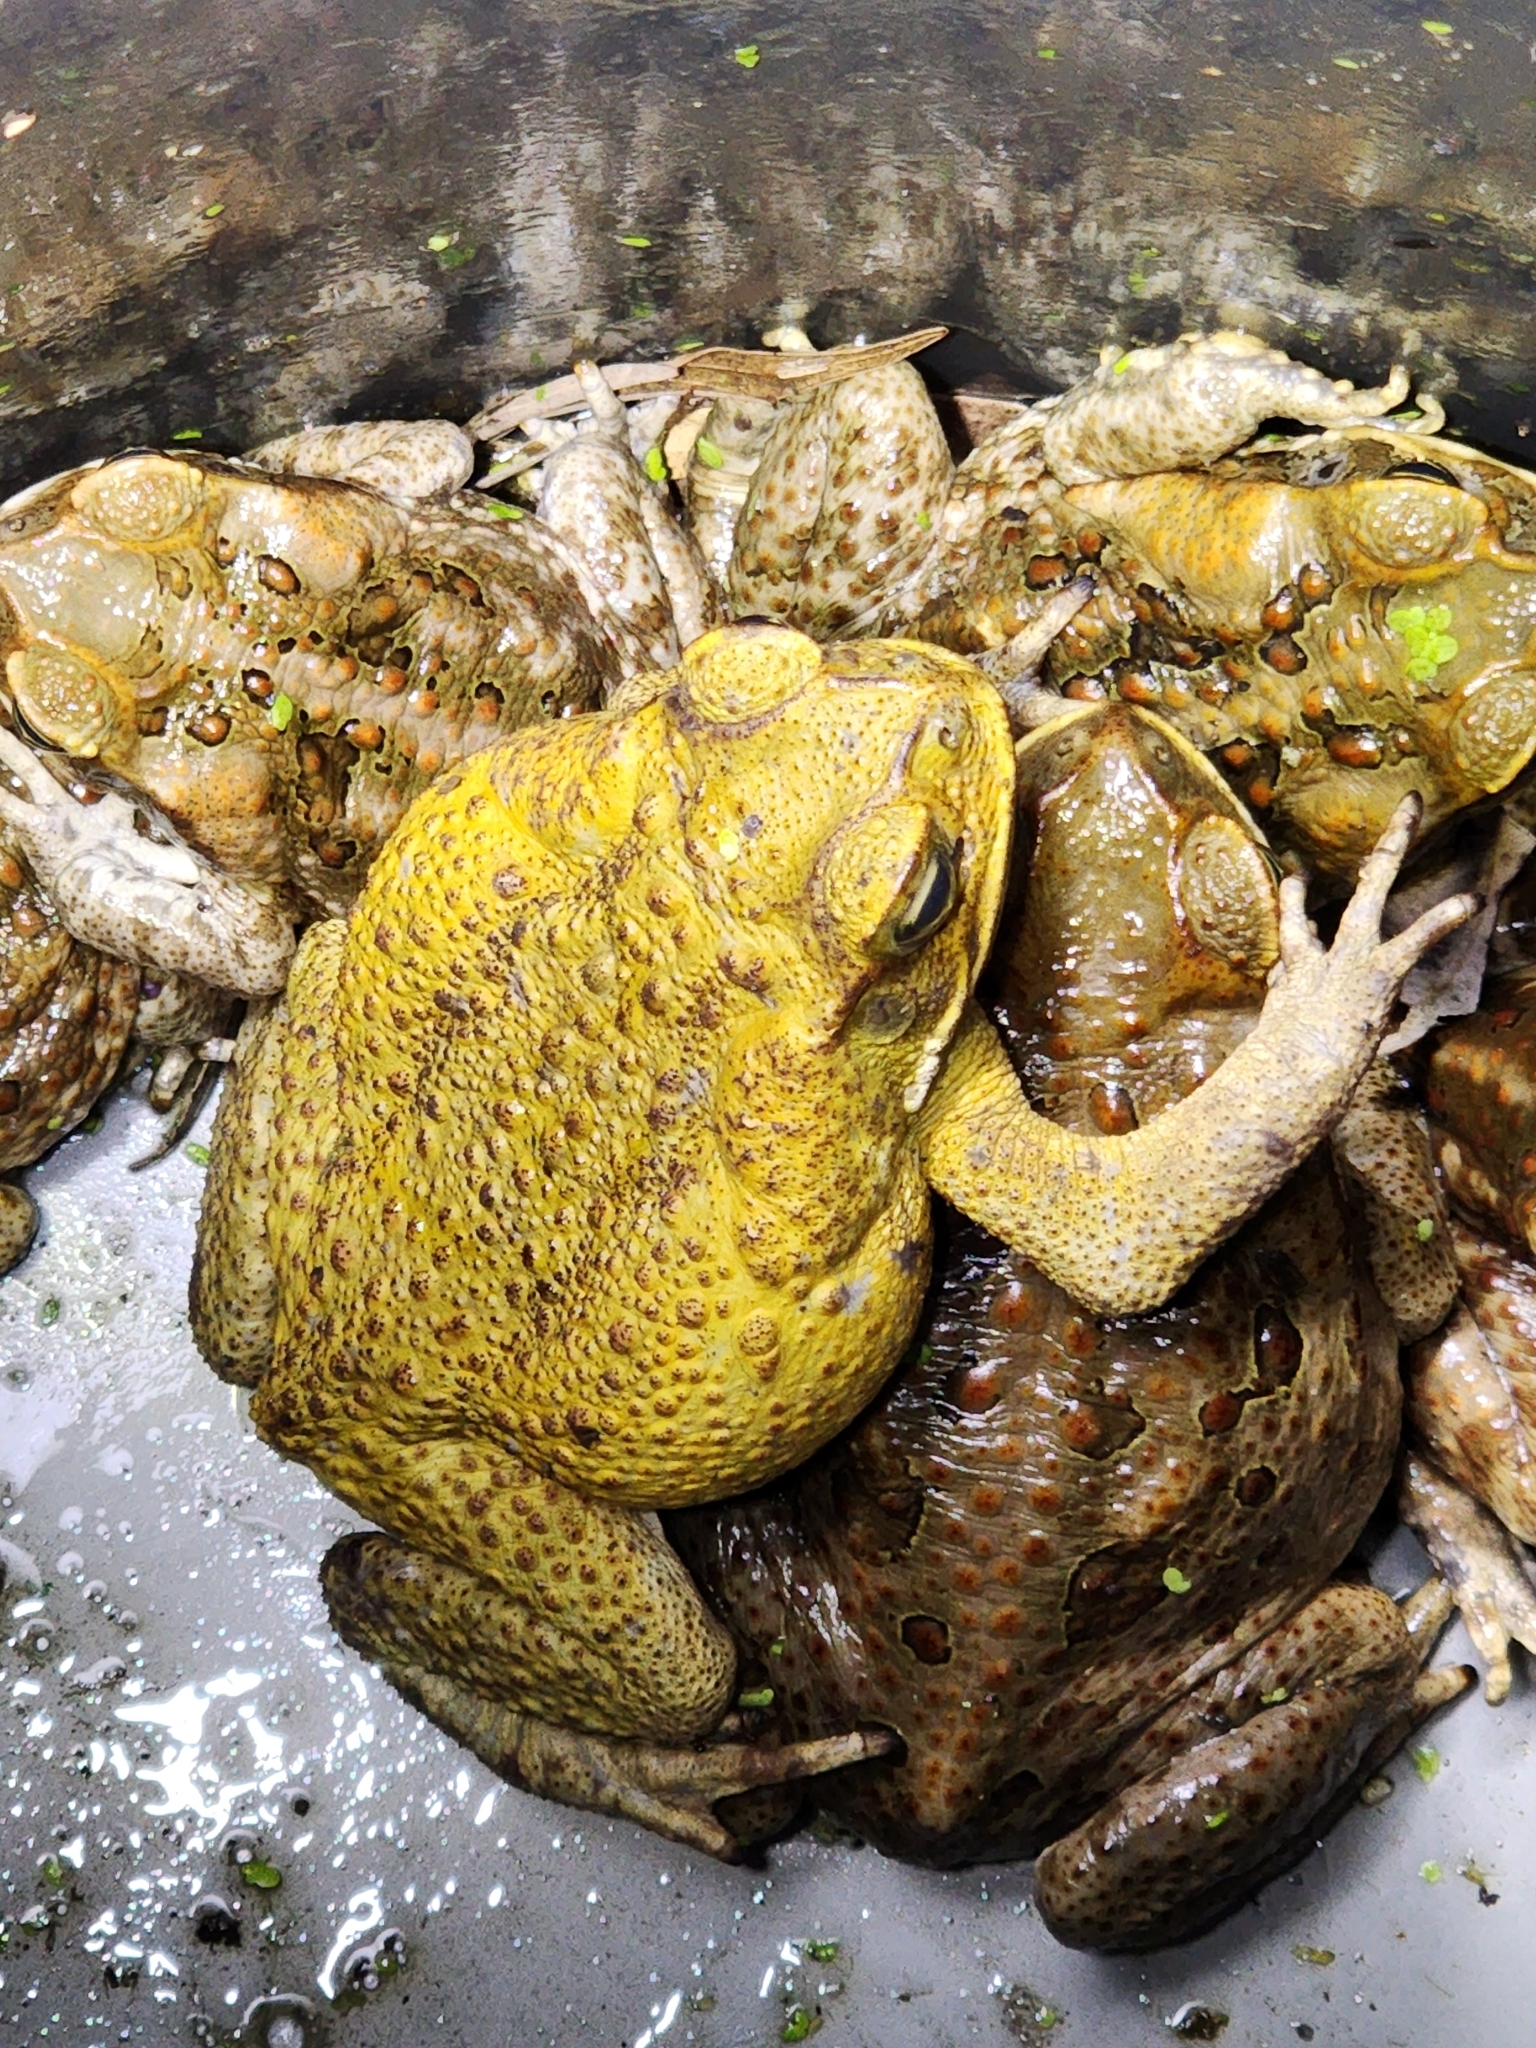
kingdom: Animalia
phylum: Chordata
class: Amphibia
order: Anura
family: Bufonidae
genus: Rhinella
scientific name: Rhinella marina
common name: Cane toad
